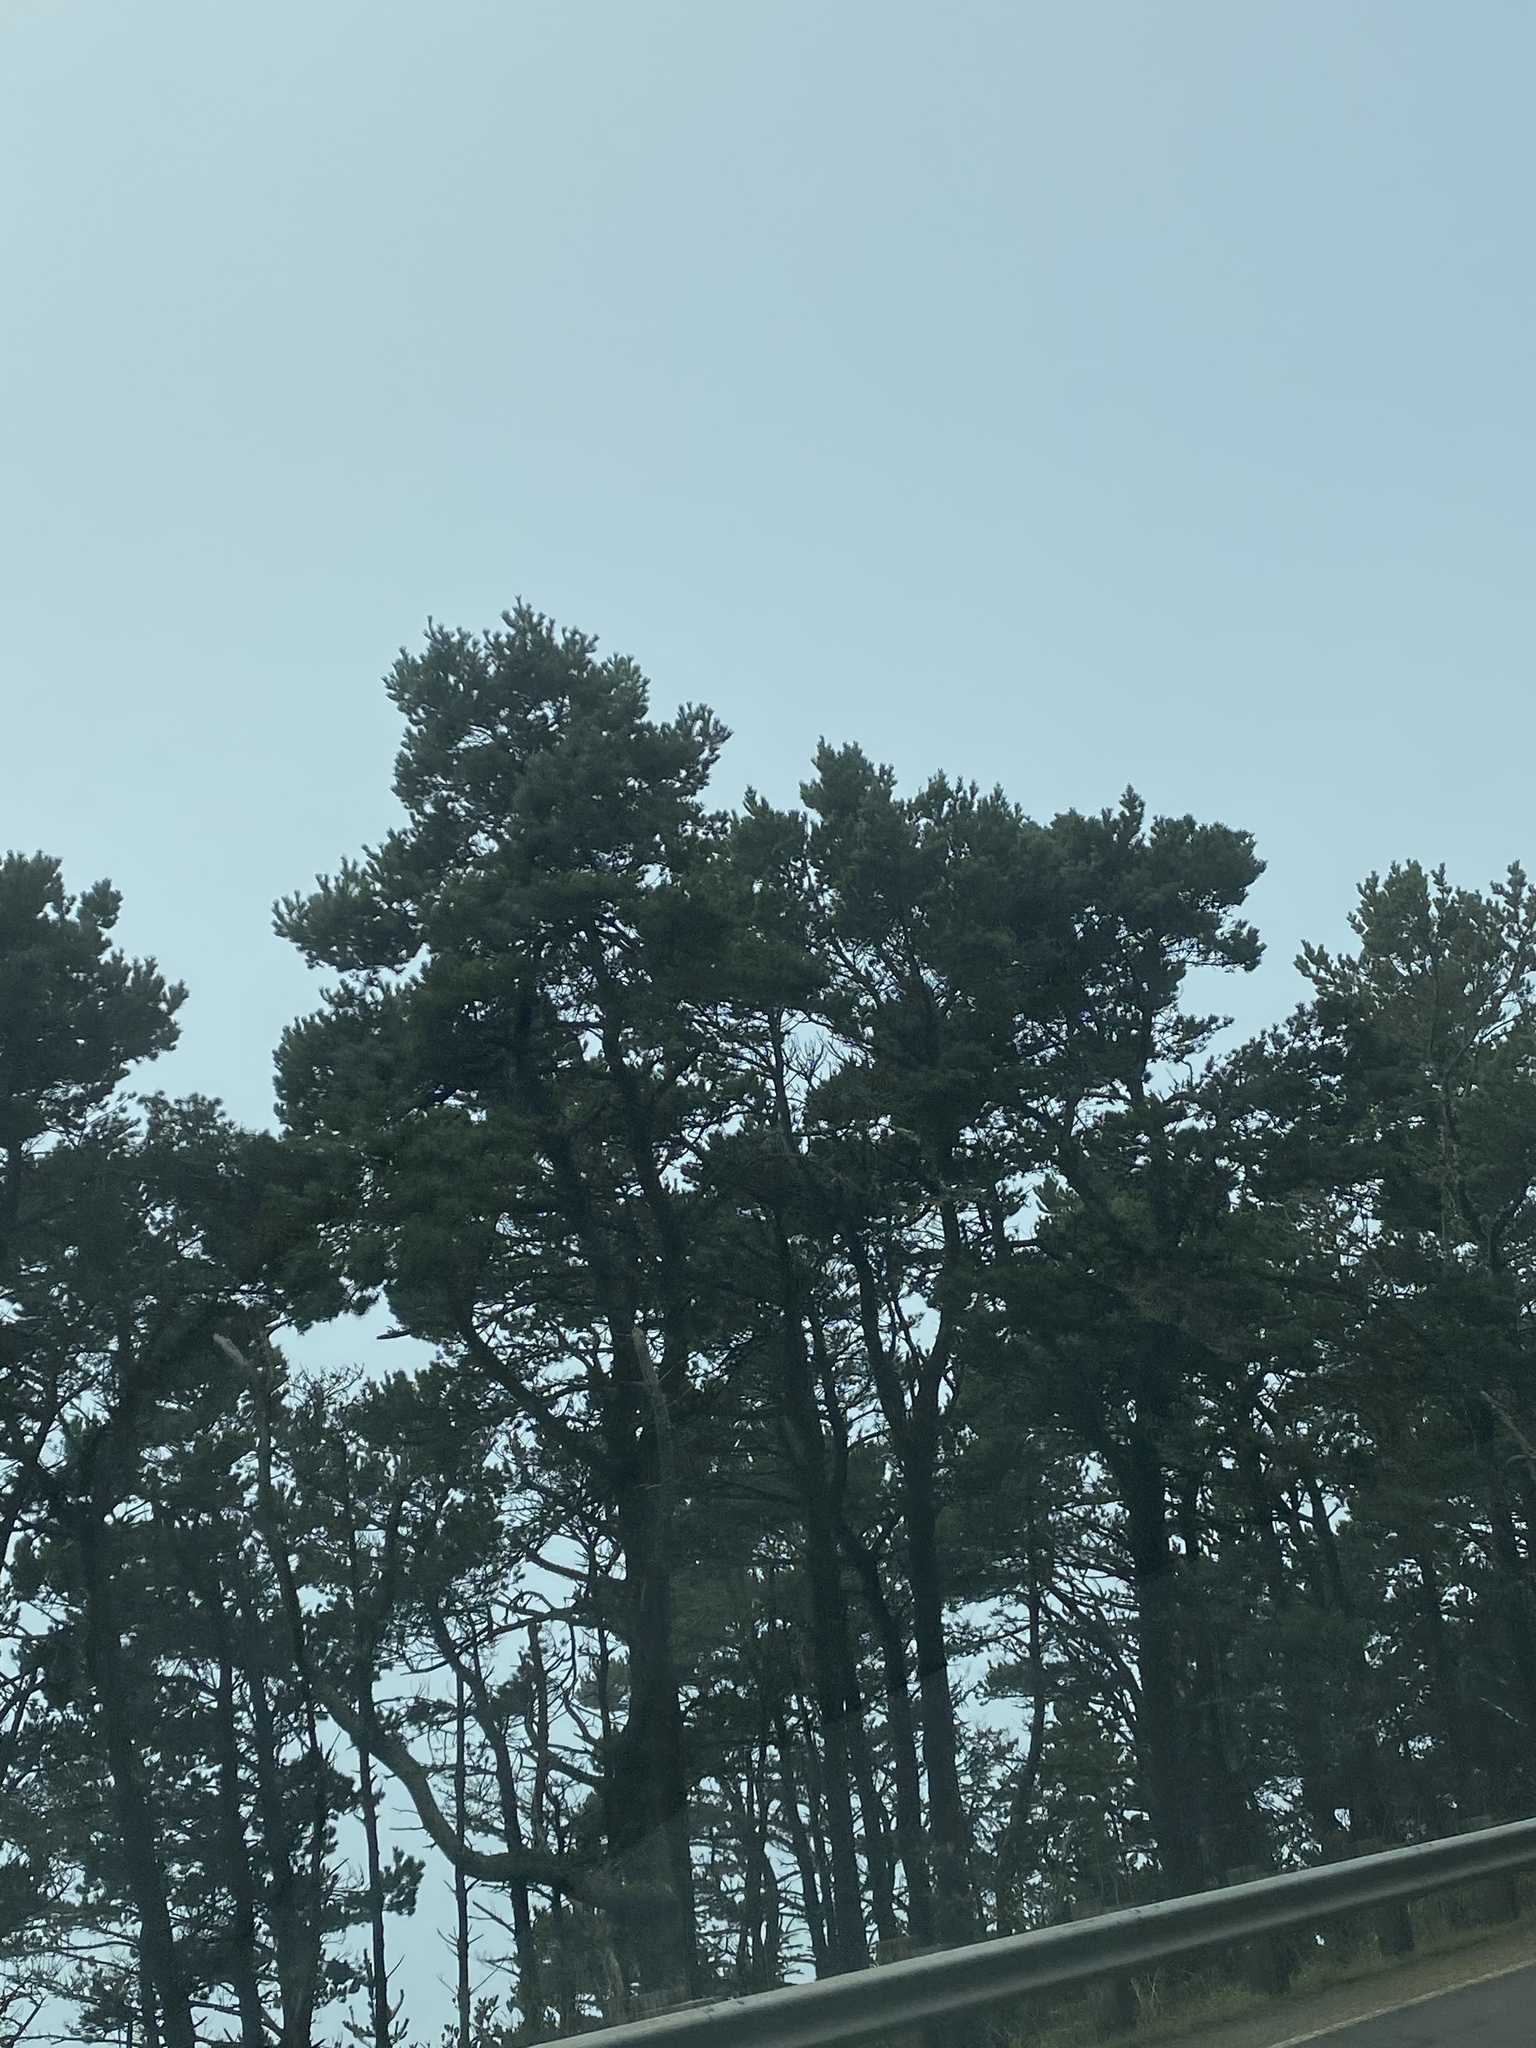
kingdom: Plantae
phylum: Tracheophyta
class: Pinopsida
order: Pinales
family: Pinaceae
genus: Pinus
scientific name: Pinus contorta
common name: Lodgepole pine
